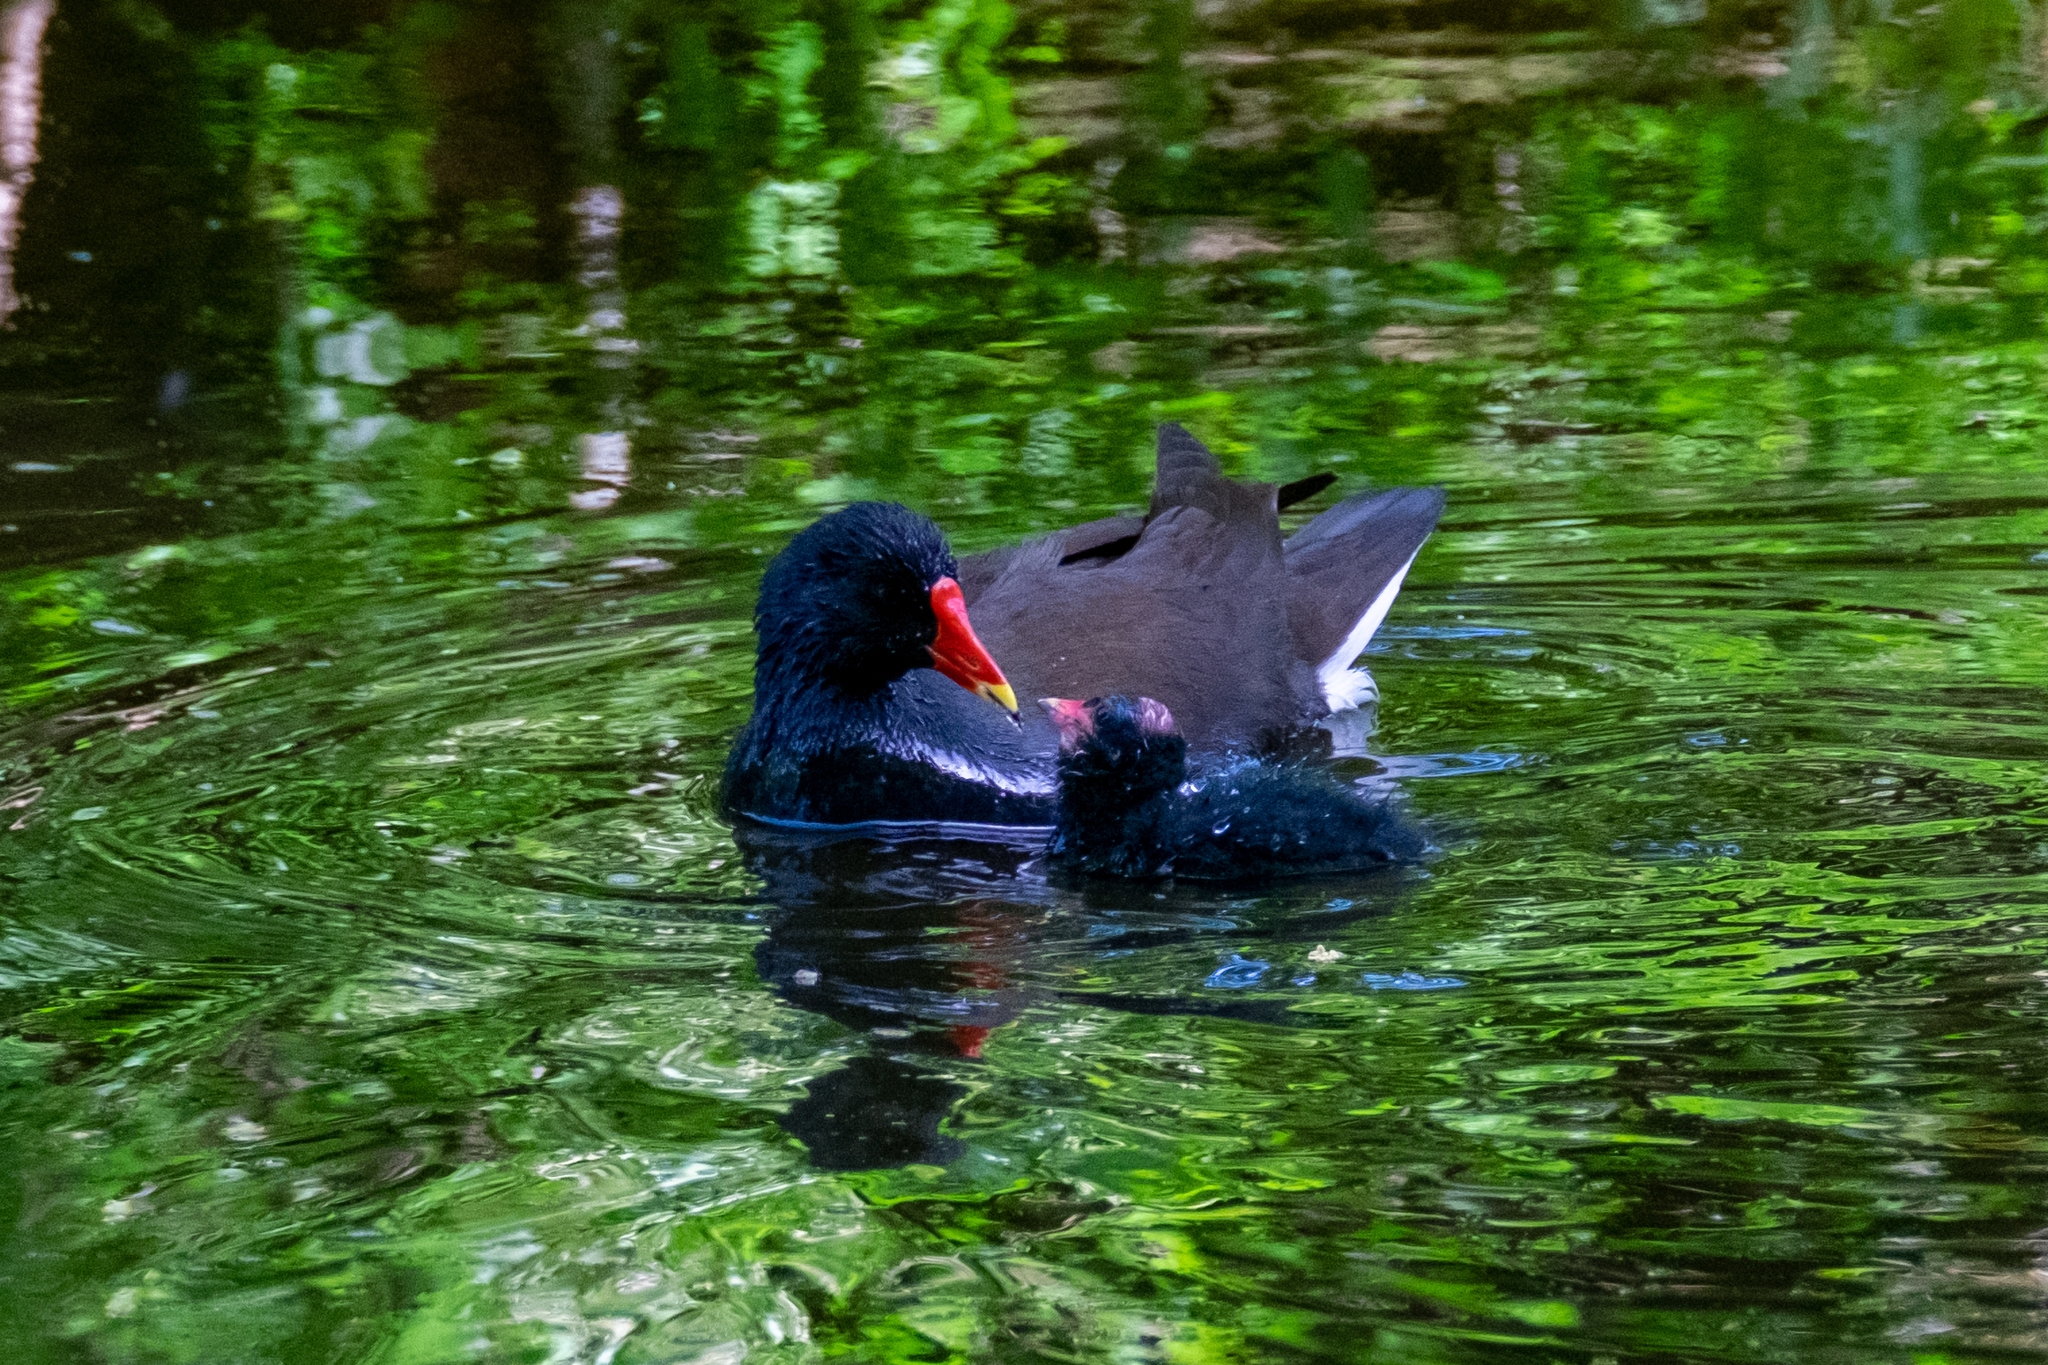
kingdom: Animalia
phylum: Chordata
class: Aves
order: Gruiformes
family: Rallidae
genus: Gallinula
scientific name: Gallinula chloropus
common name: Common moorhen
